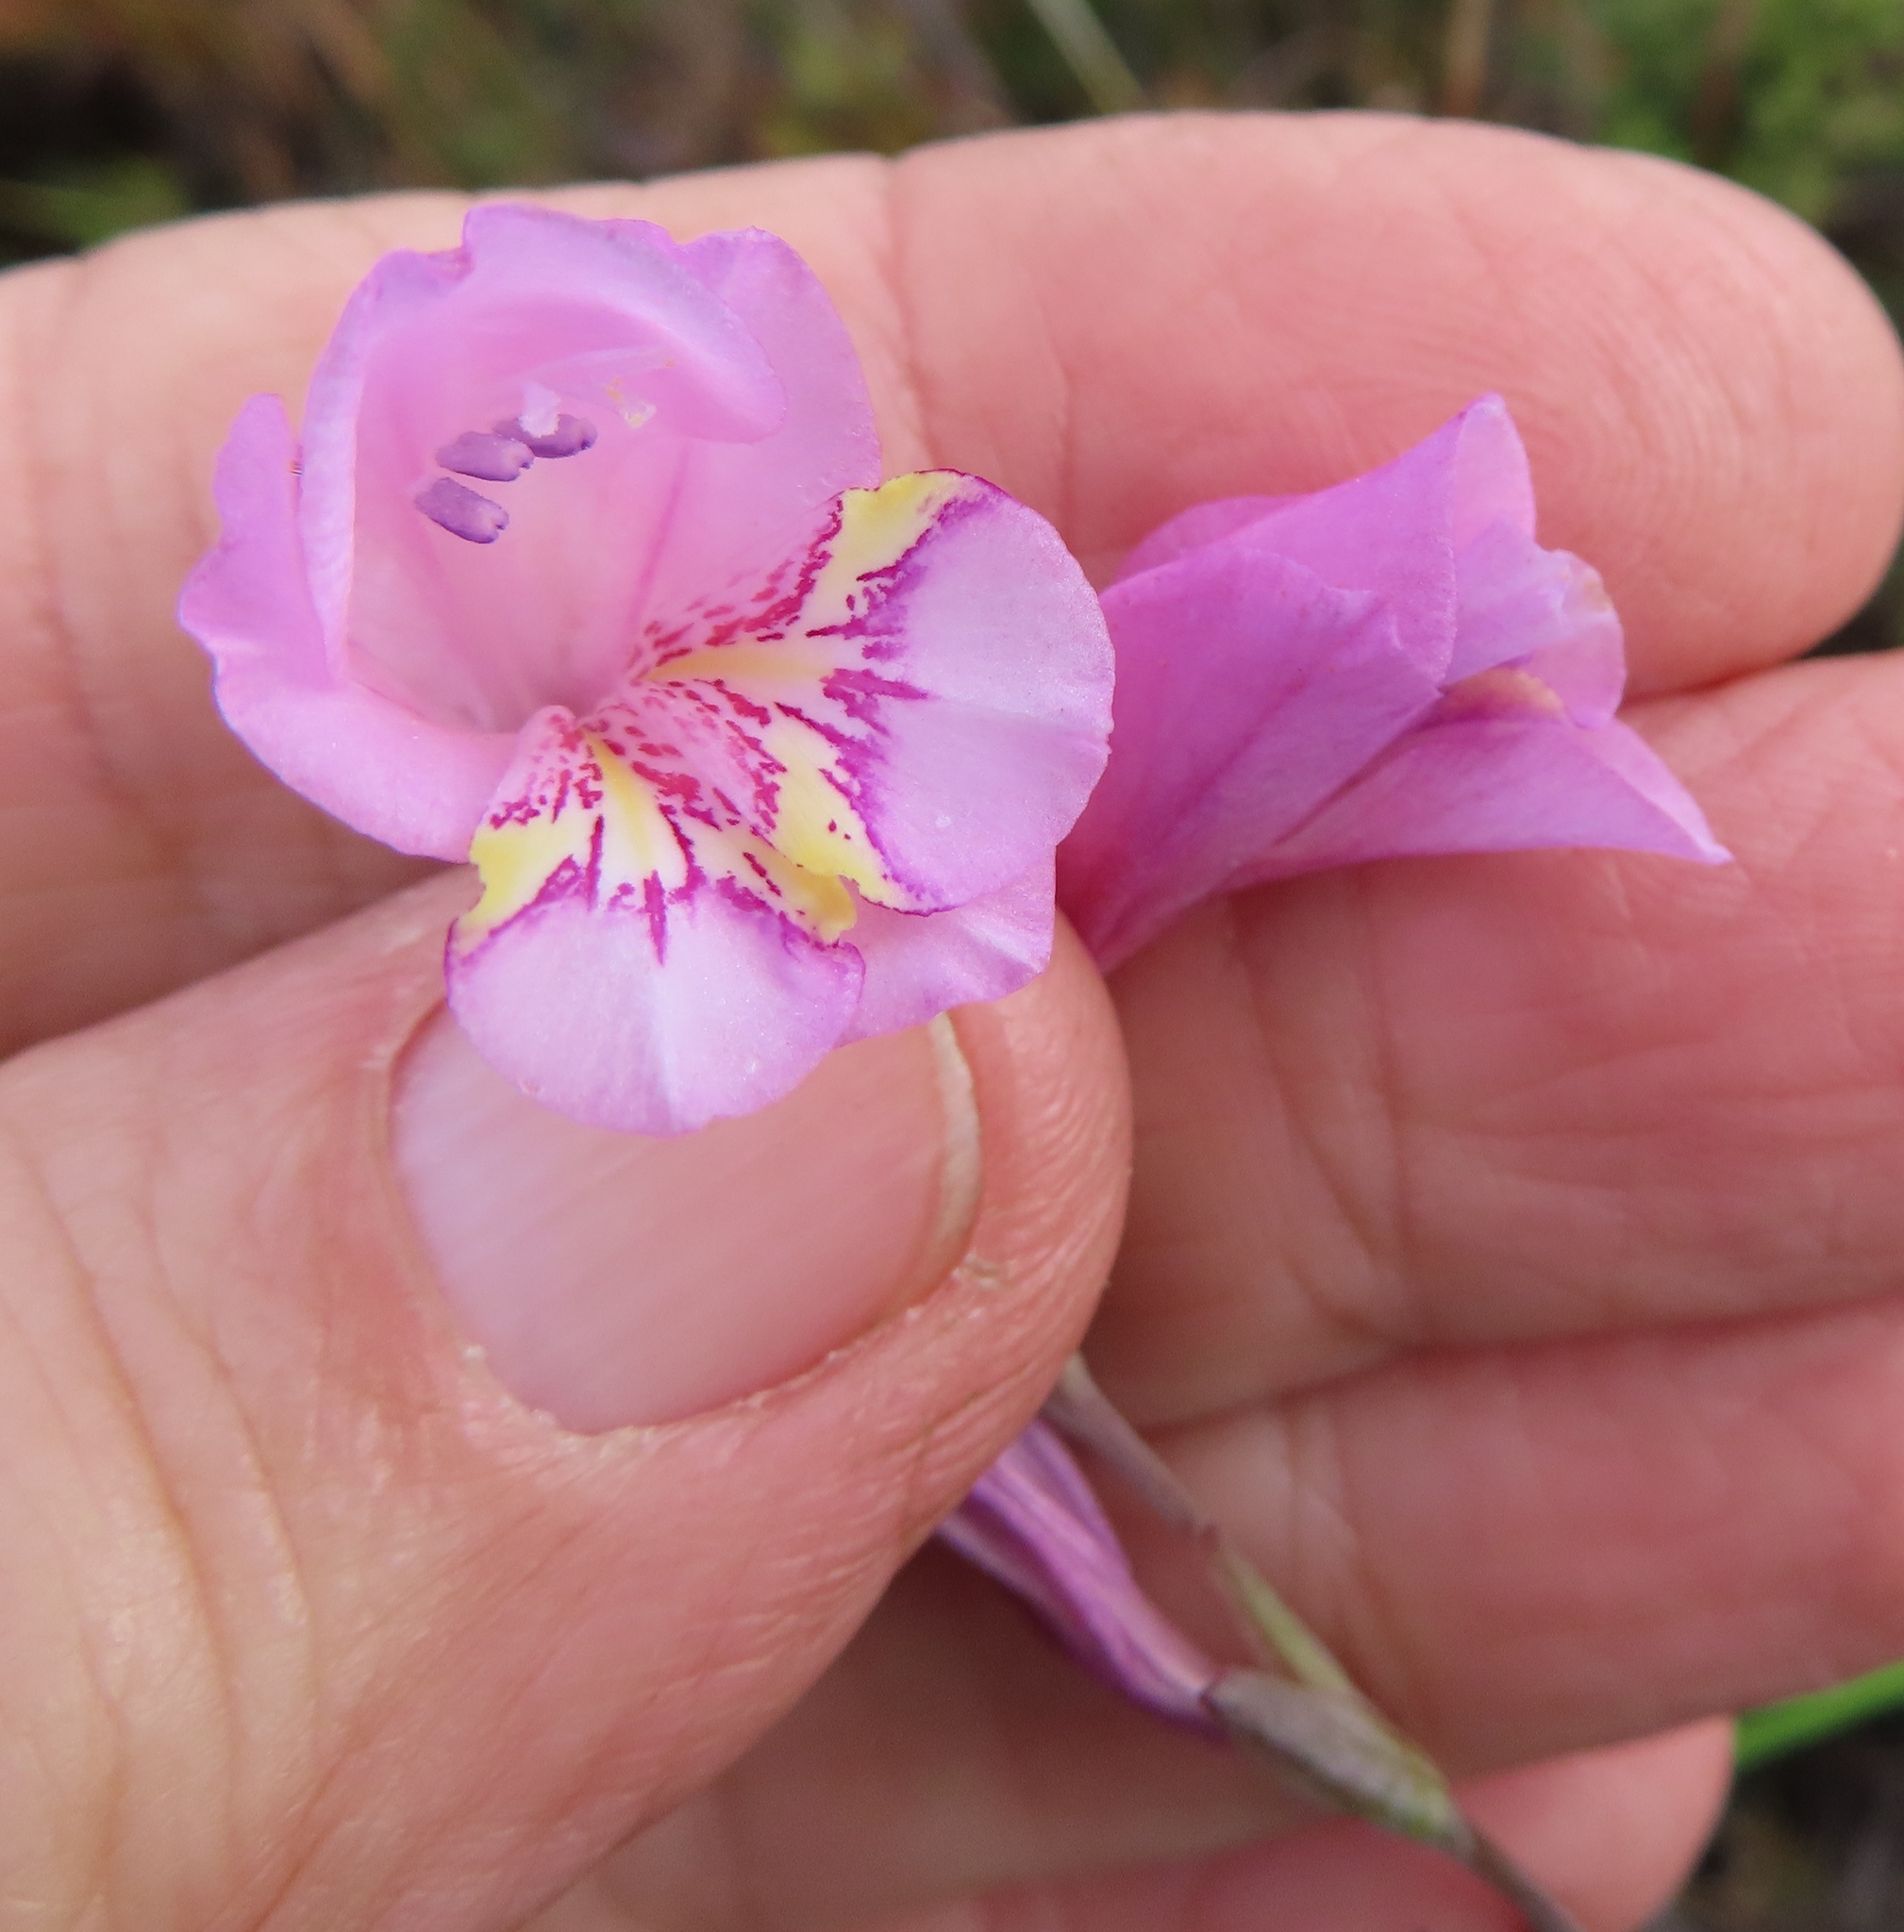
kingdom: Plantae
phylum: Tracheophyta
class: Liliopsida
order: Asparagales
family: Iridaceae
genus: Gladiolus
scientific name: Gladiolus brevifolius
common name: March pypie
